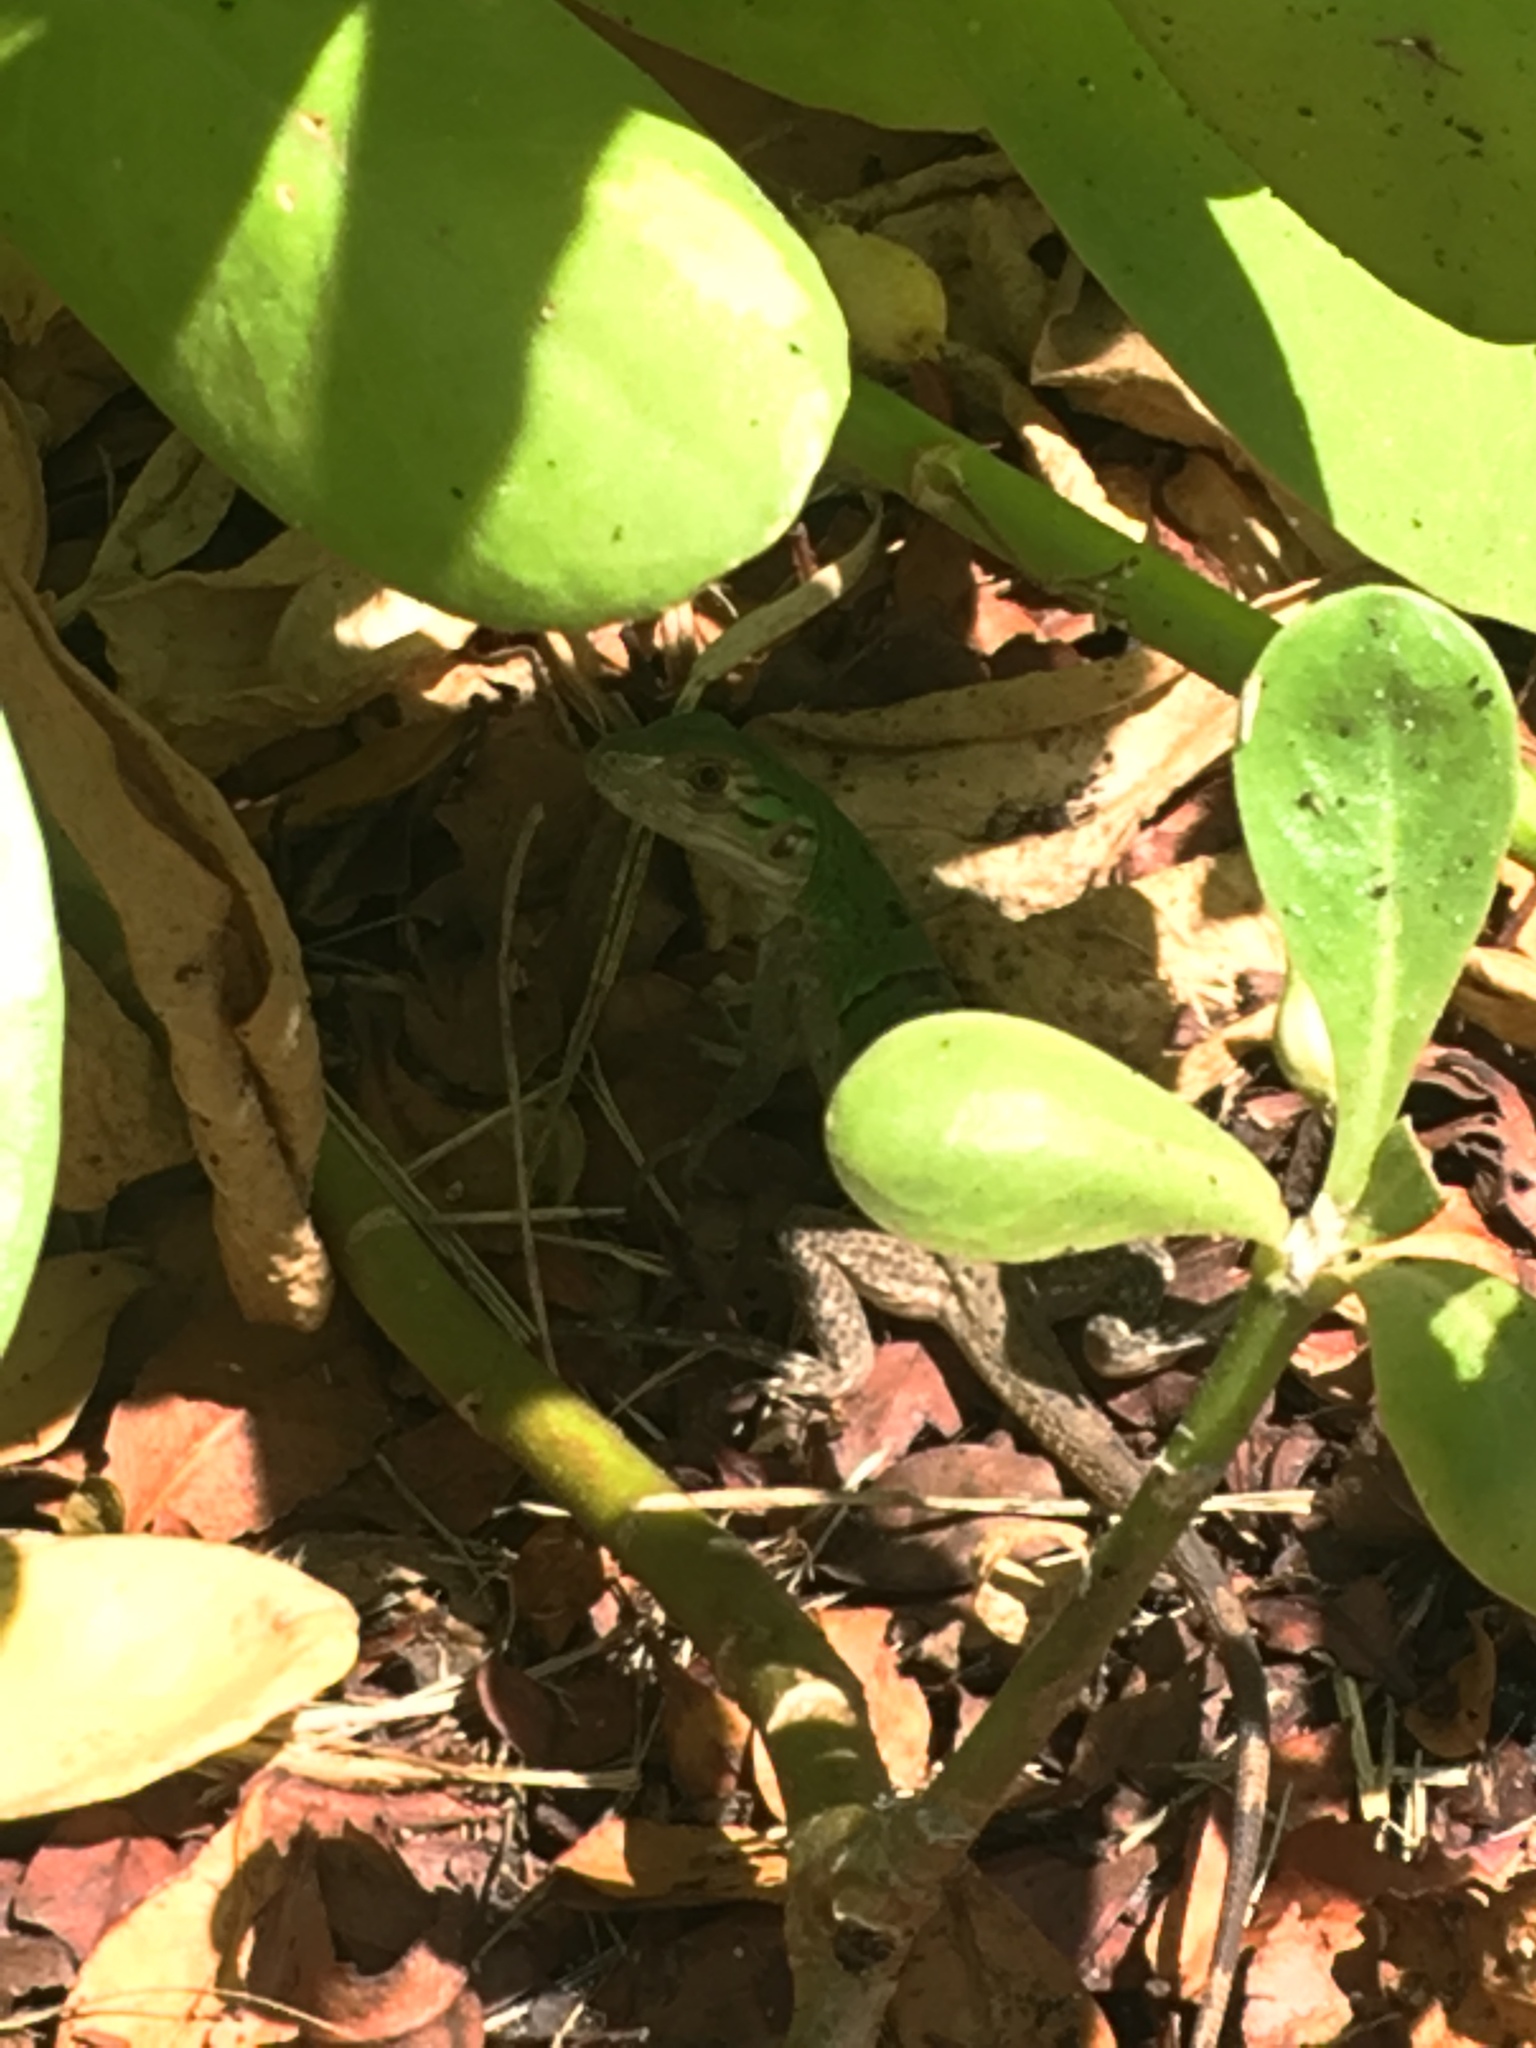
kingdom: Animalia
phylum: Chordata
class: Squamata
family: Iguanidae
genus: Ctenosaura
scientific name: Ctenosaura similis
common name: Black spiny-tailed iguana
